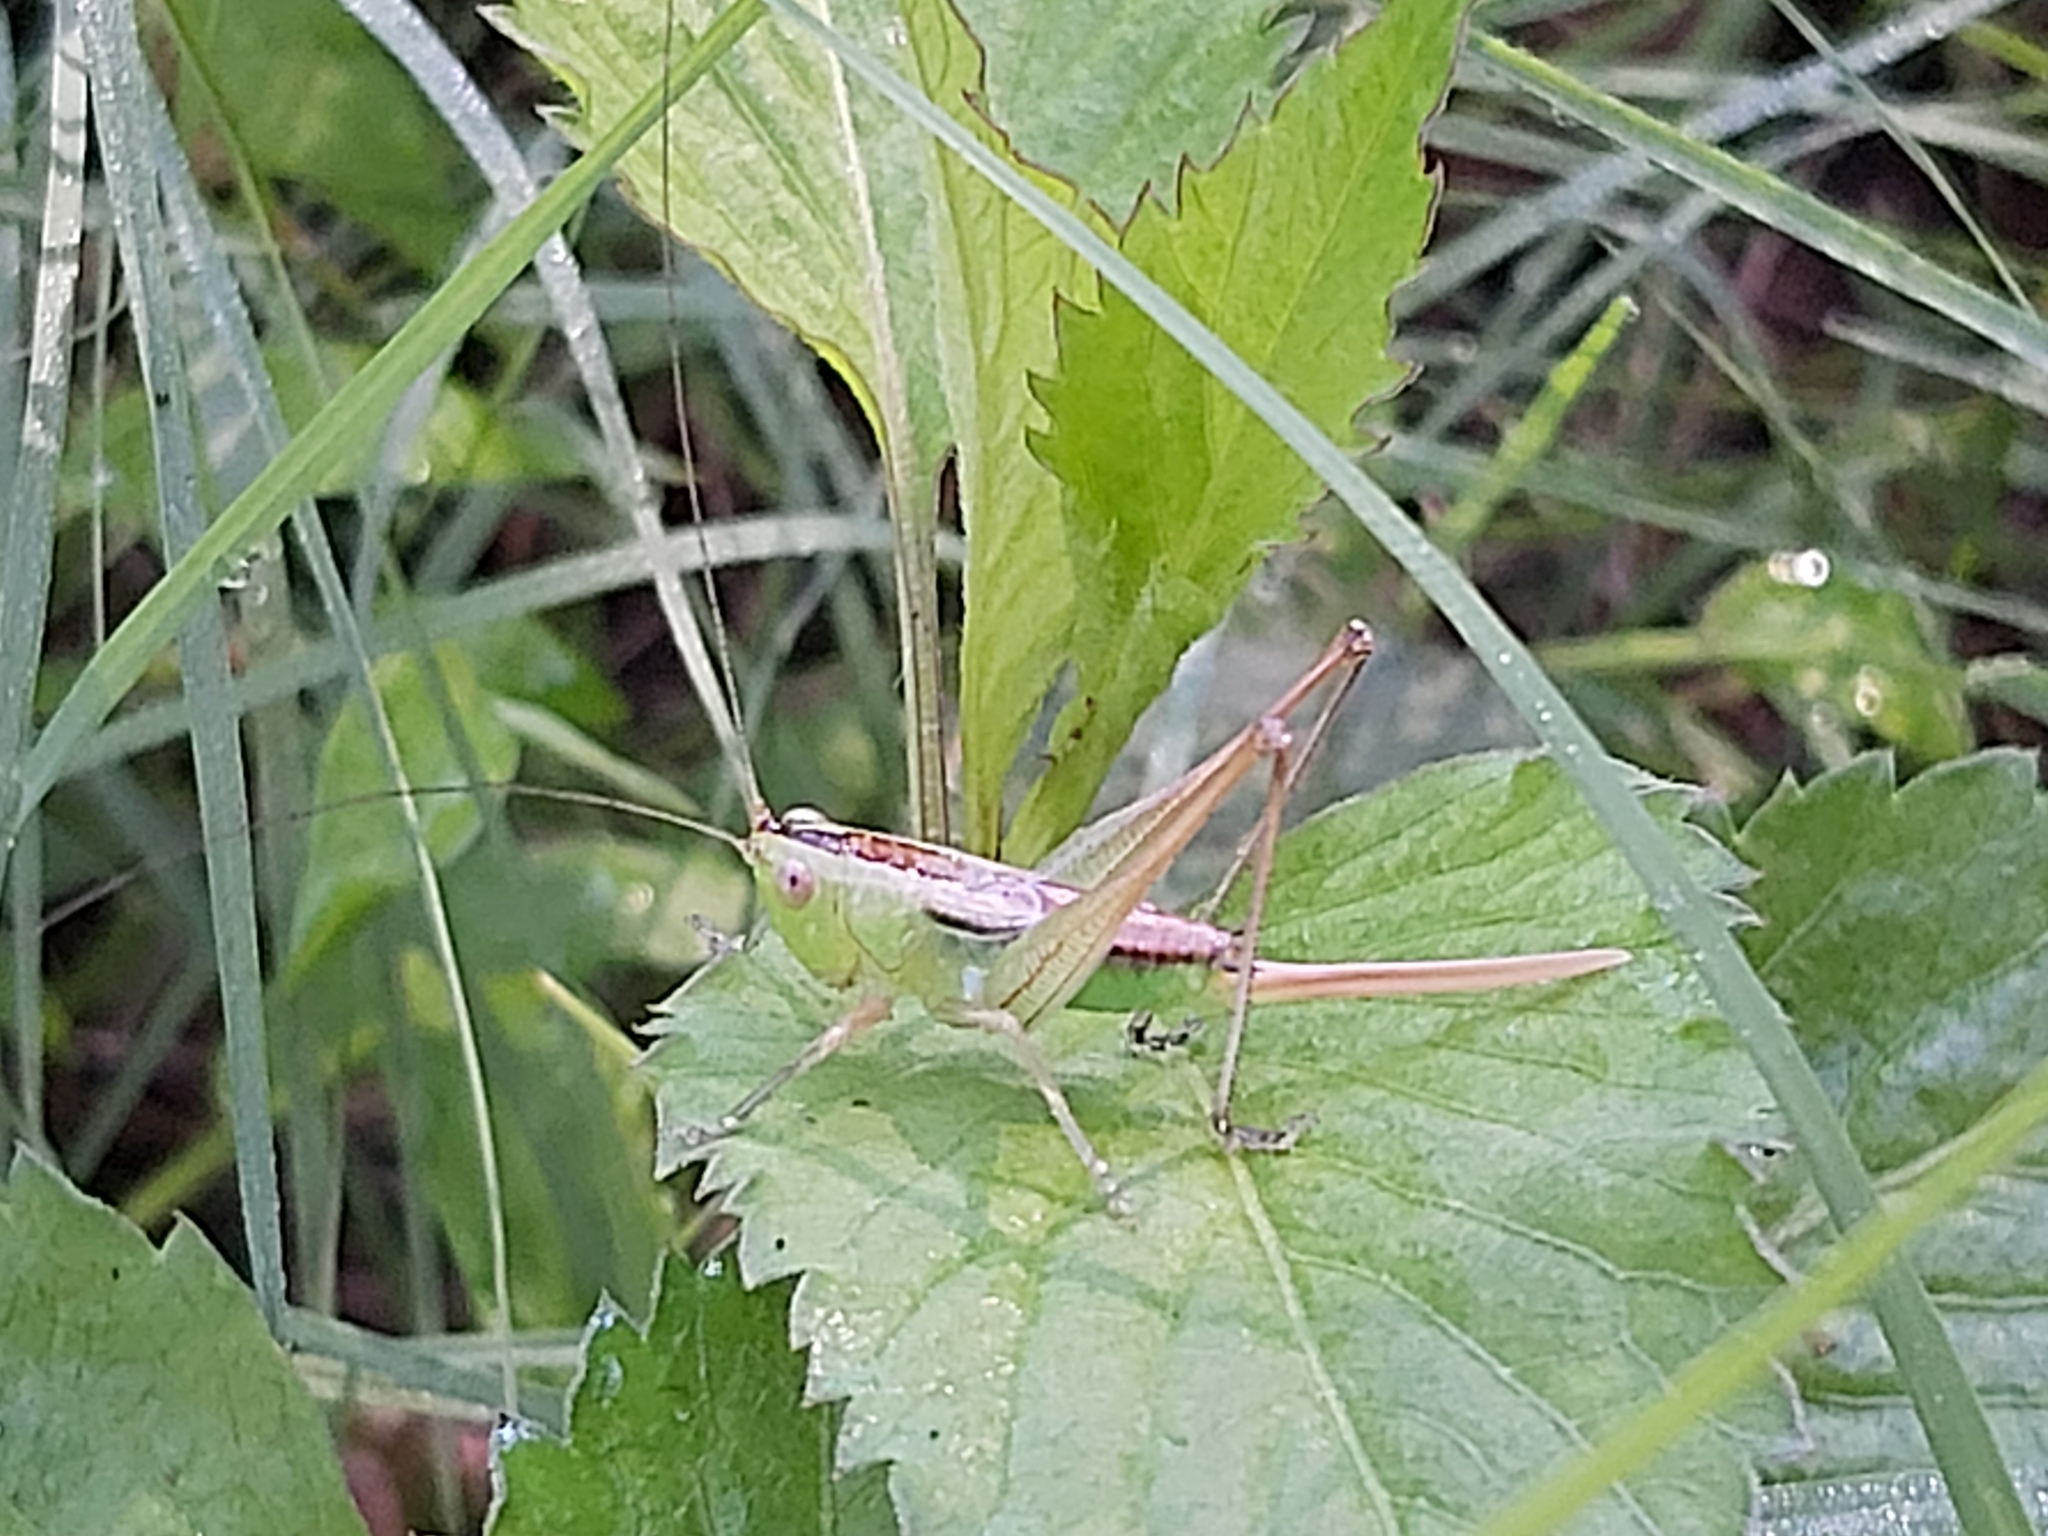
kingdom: Animalia
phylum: Arthropoda
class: Insecta
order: Orthoptera
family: Tettigoniidae
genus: Conocephalus
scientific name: Conocephalus semivittatus
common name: Blackish meadow katydid
